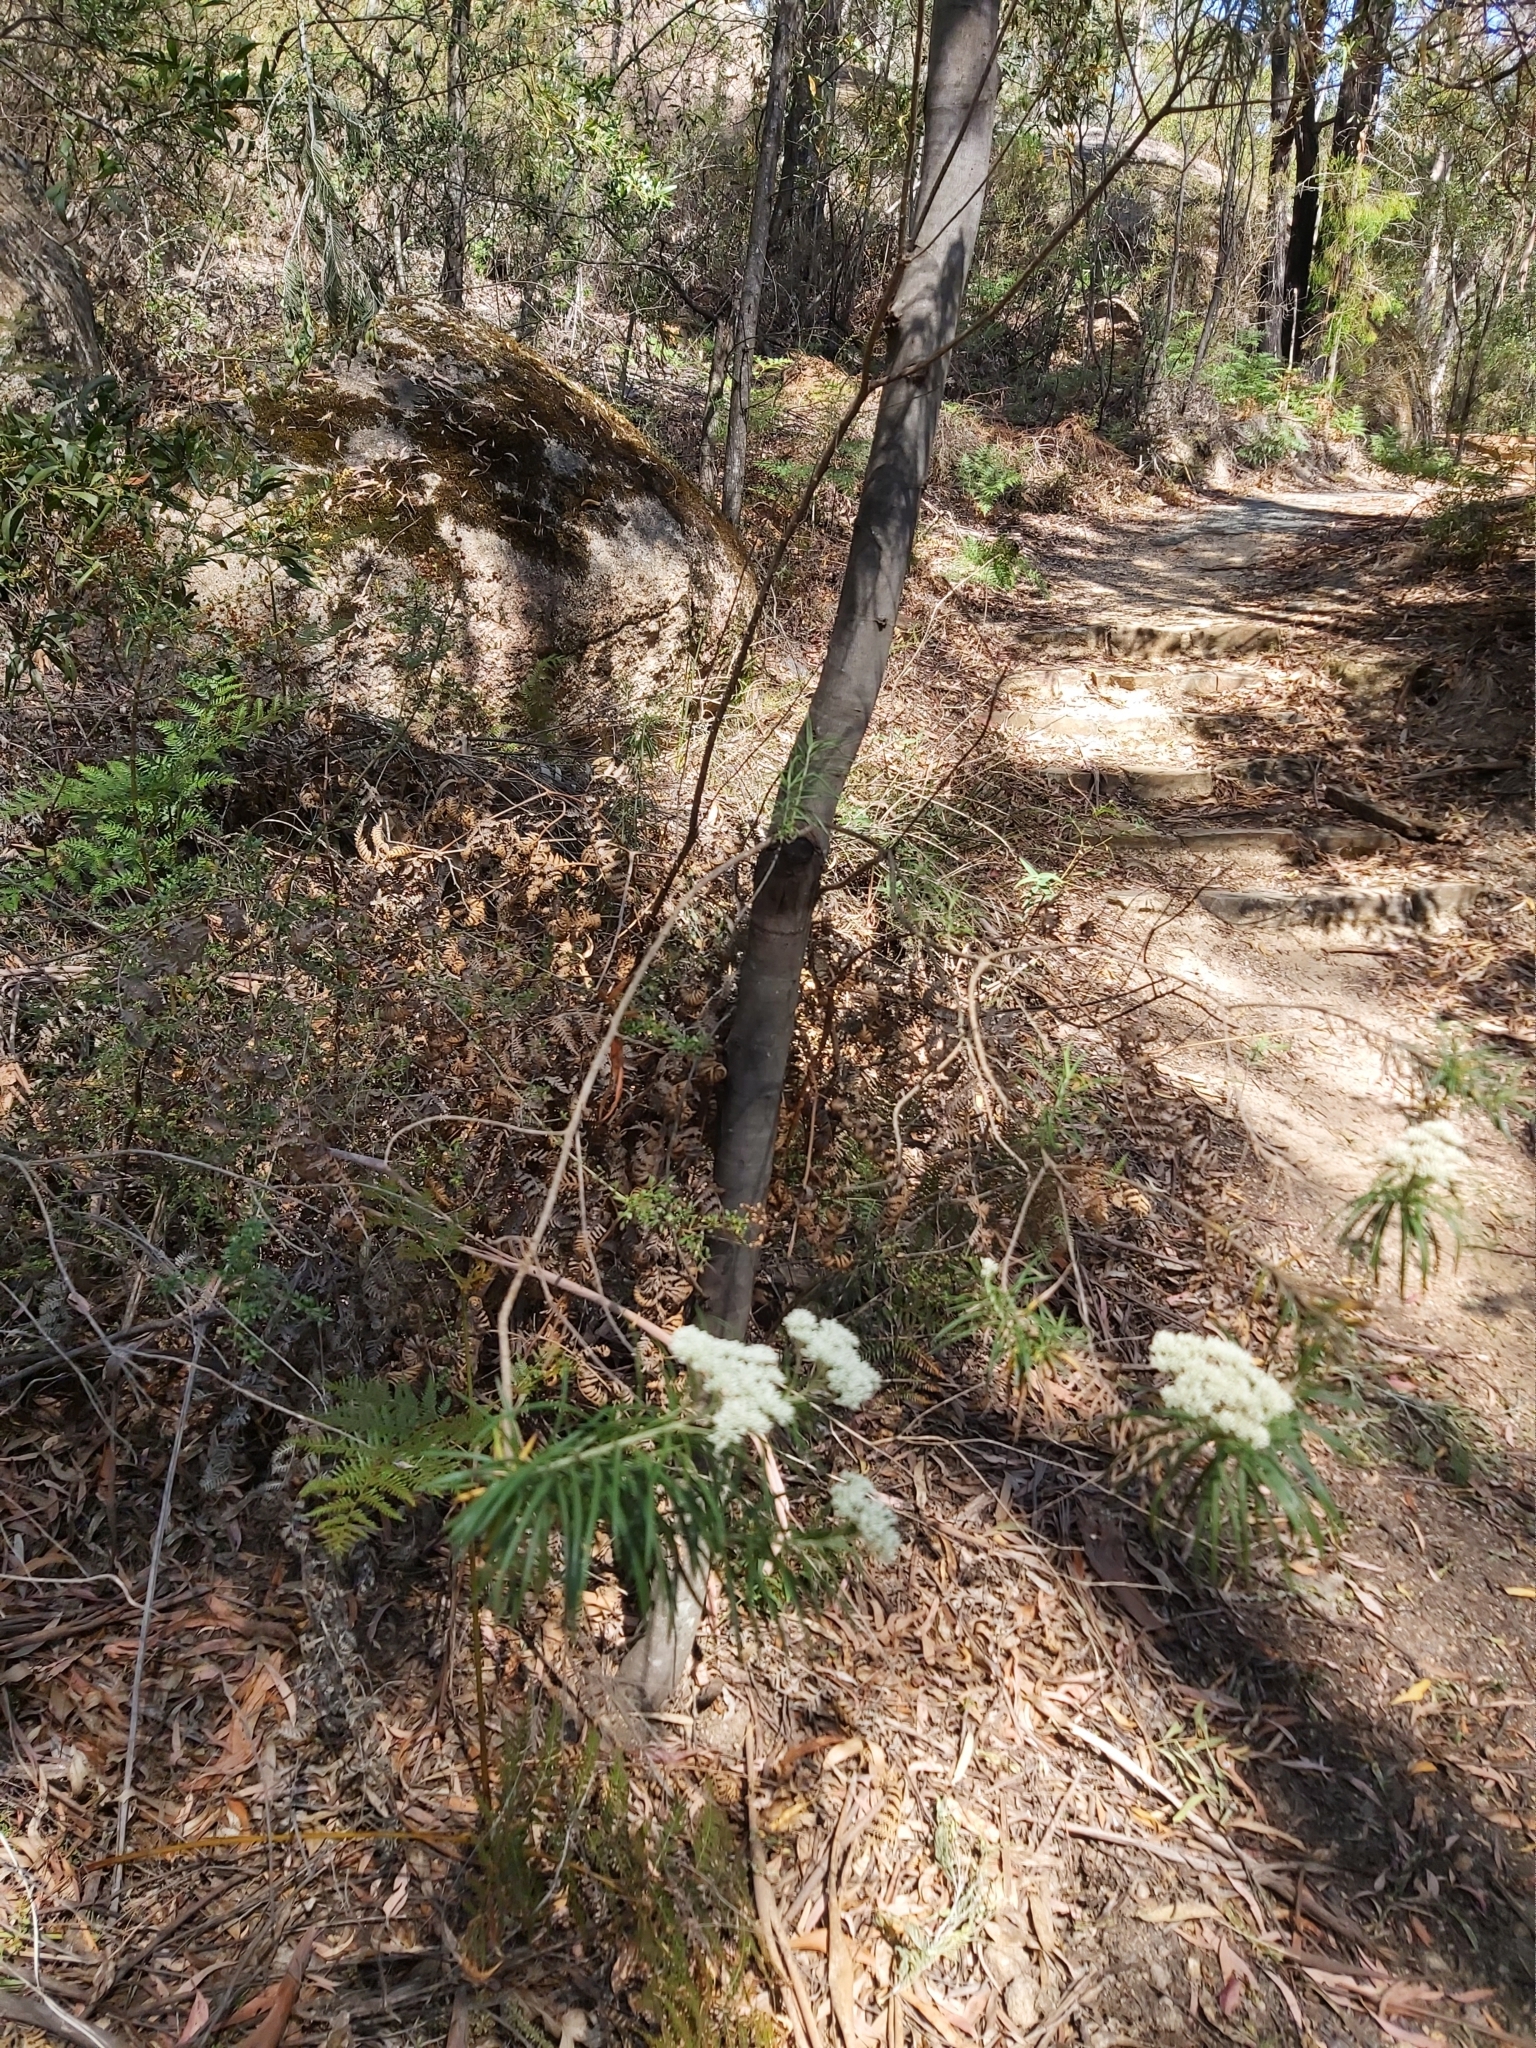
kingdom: Plantae
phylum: Tracheophyta
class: Magnoliopsida
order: Asterales
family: Asteraceae
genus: Cassinia
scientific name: Cassinia longifolia
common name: Longleaf-dogwood
